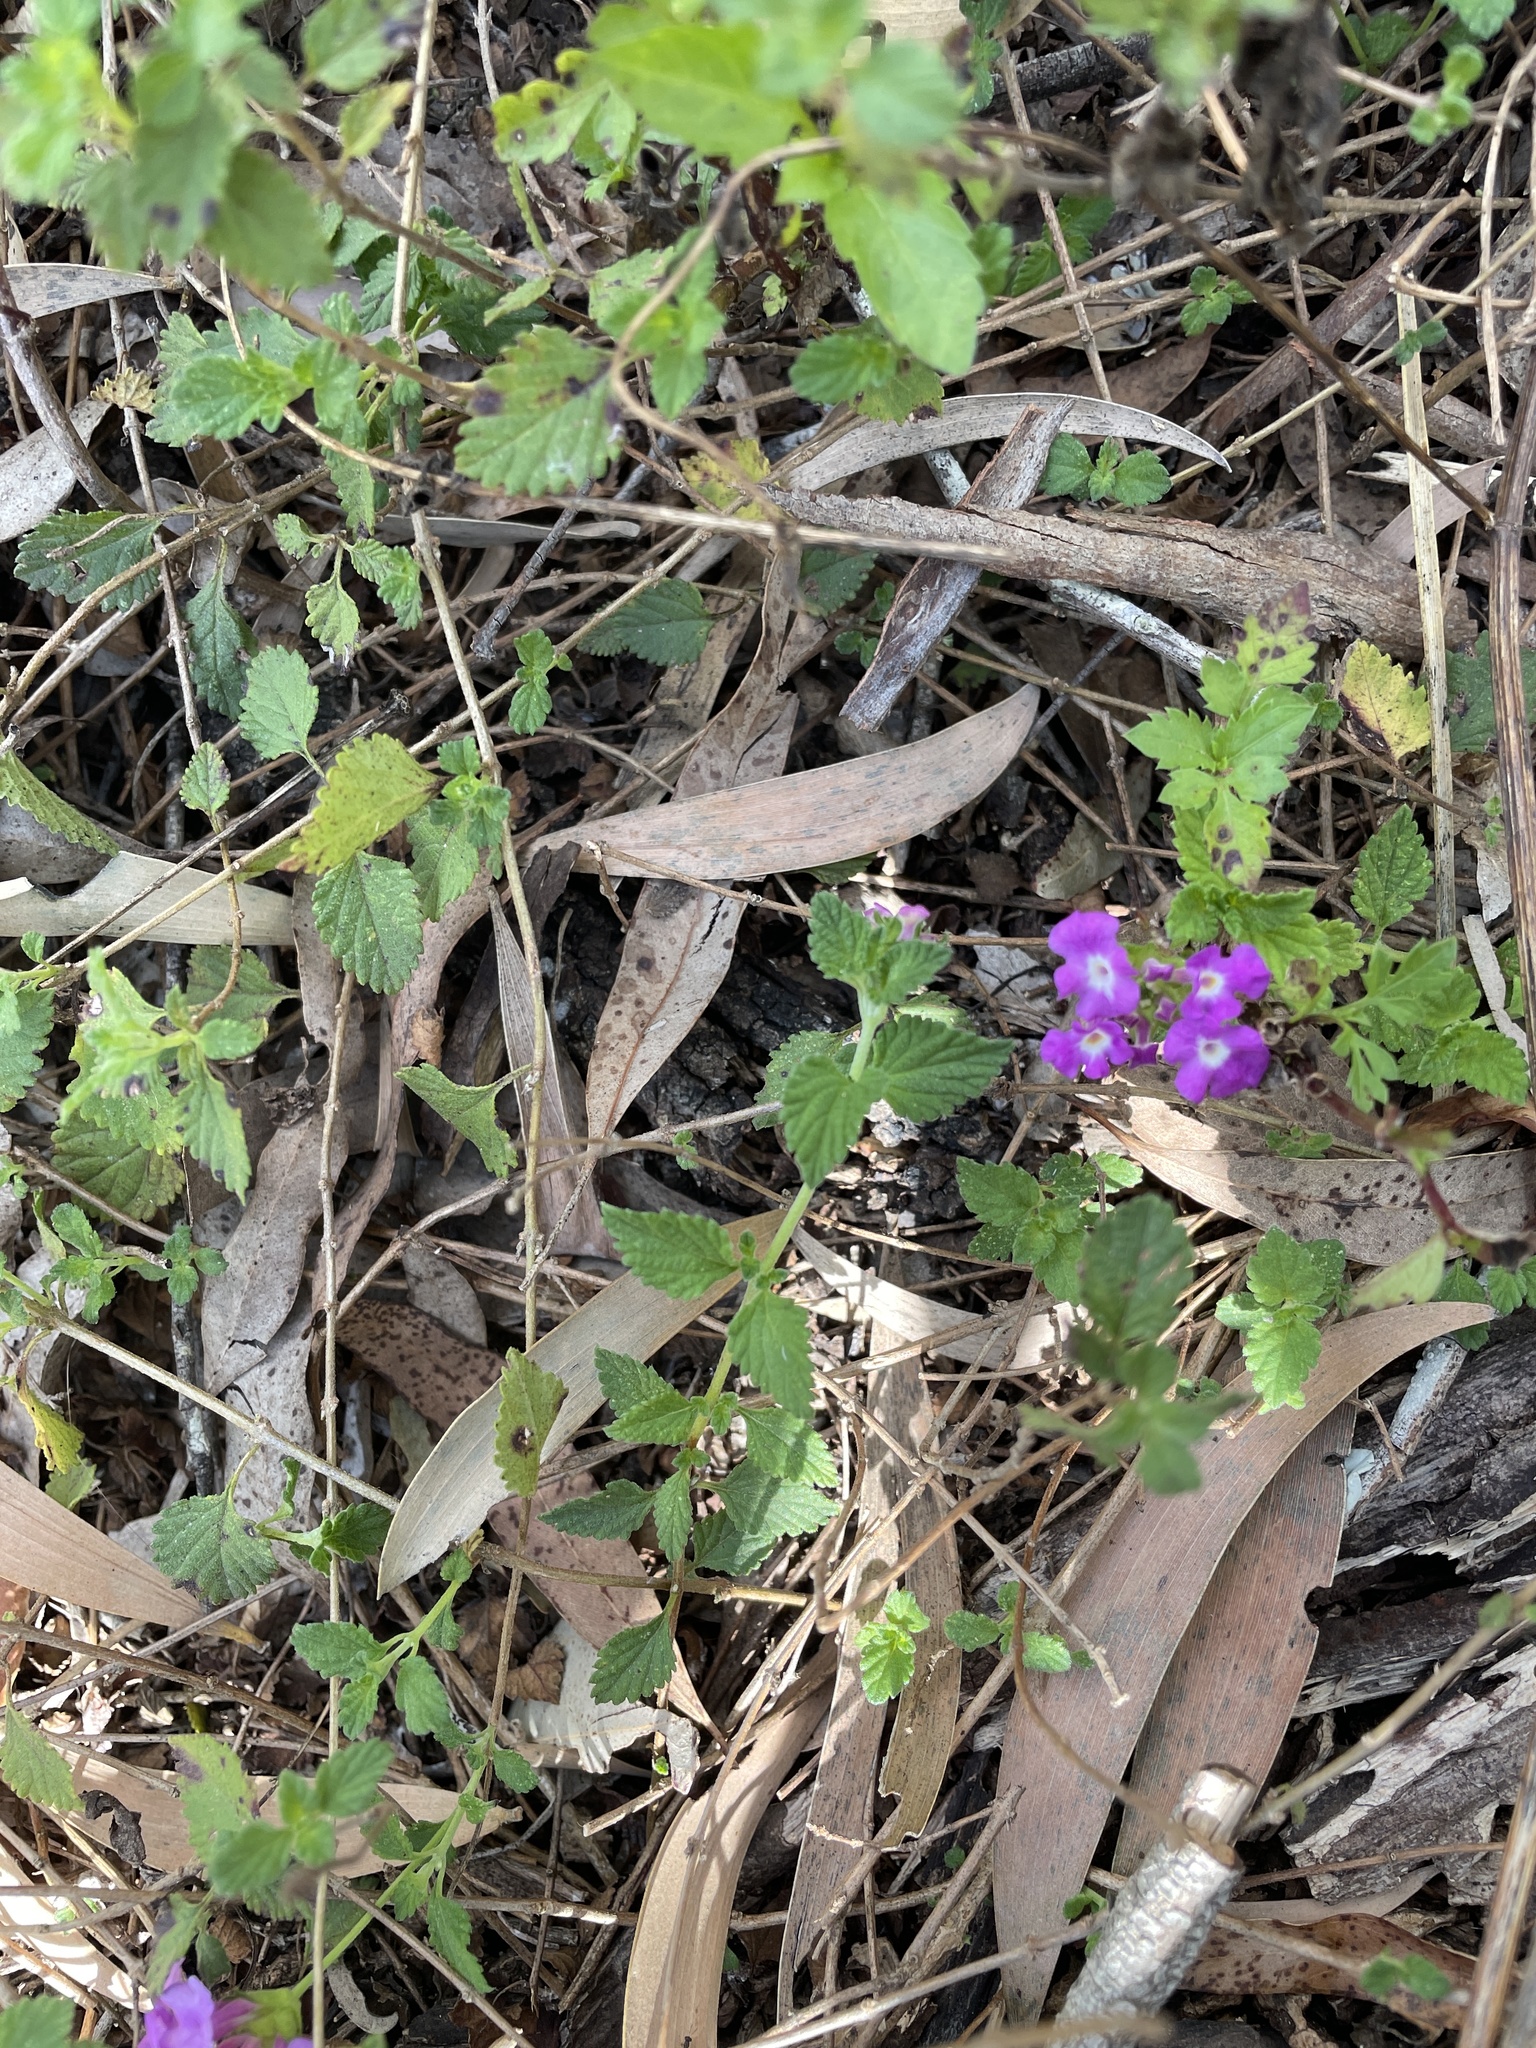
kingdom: Plantae
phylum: Tracheophyta
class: Magnoliopsida
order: Lamiales
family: Verbenaceae
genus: Lantana
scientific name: Lantana montevidensis
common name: Trailing shrubverbena
